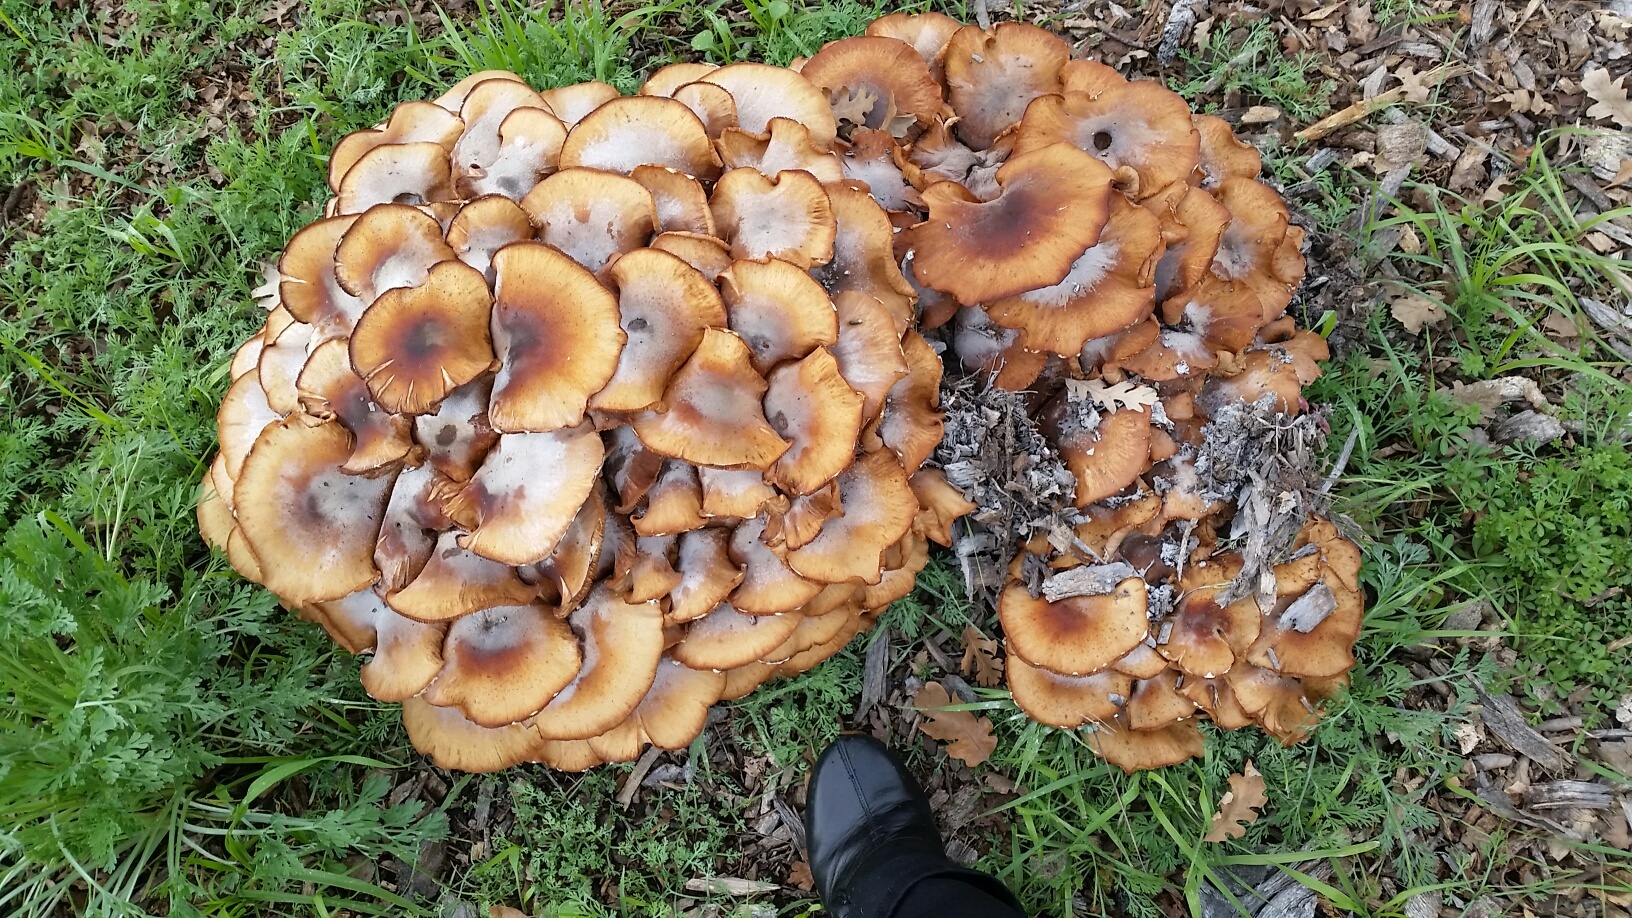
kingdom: Fungi
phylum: Basidiomycota
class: Agaricomycetes
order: Agaricales
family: Physalacriaceae
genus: Armillaria
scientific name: Armillaria mellea
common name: Honey fungus
